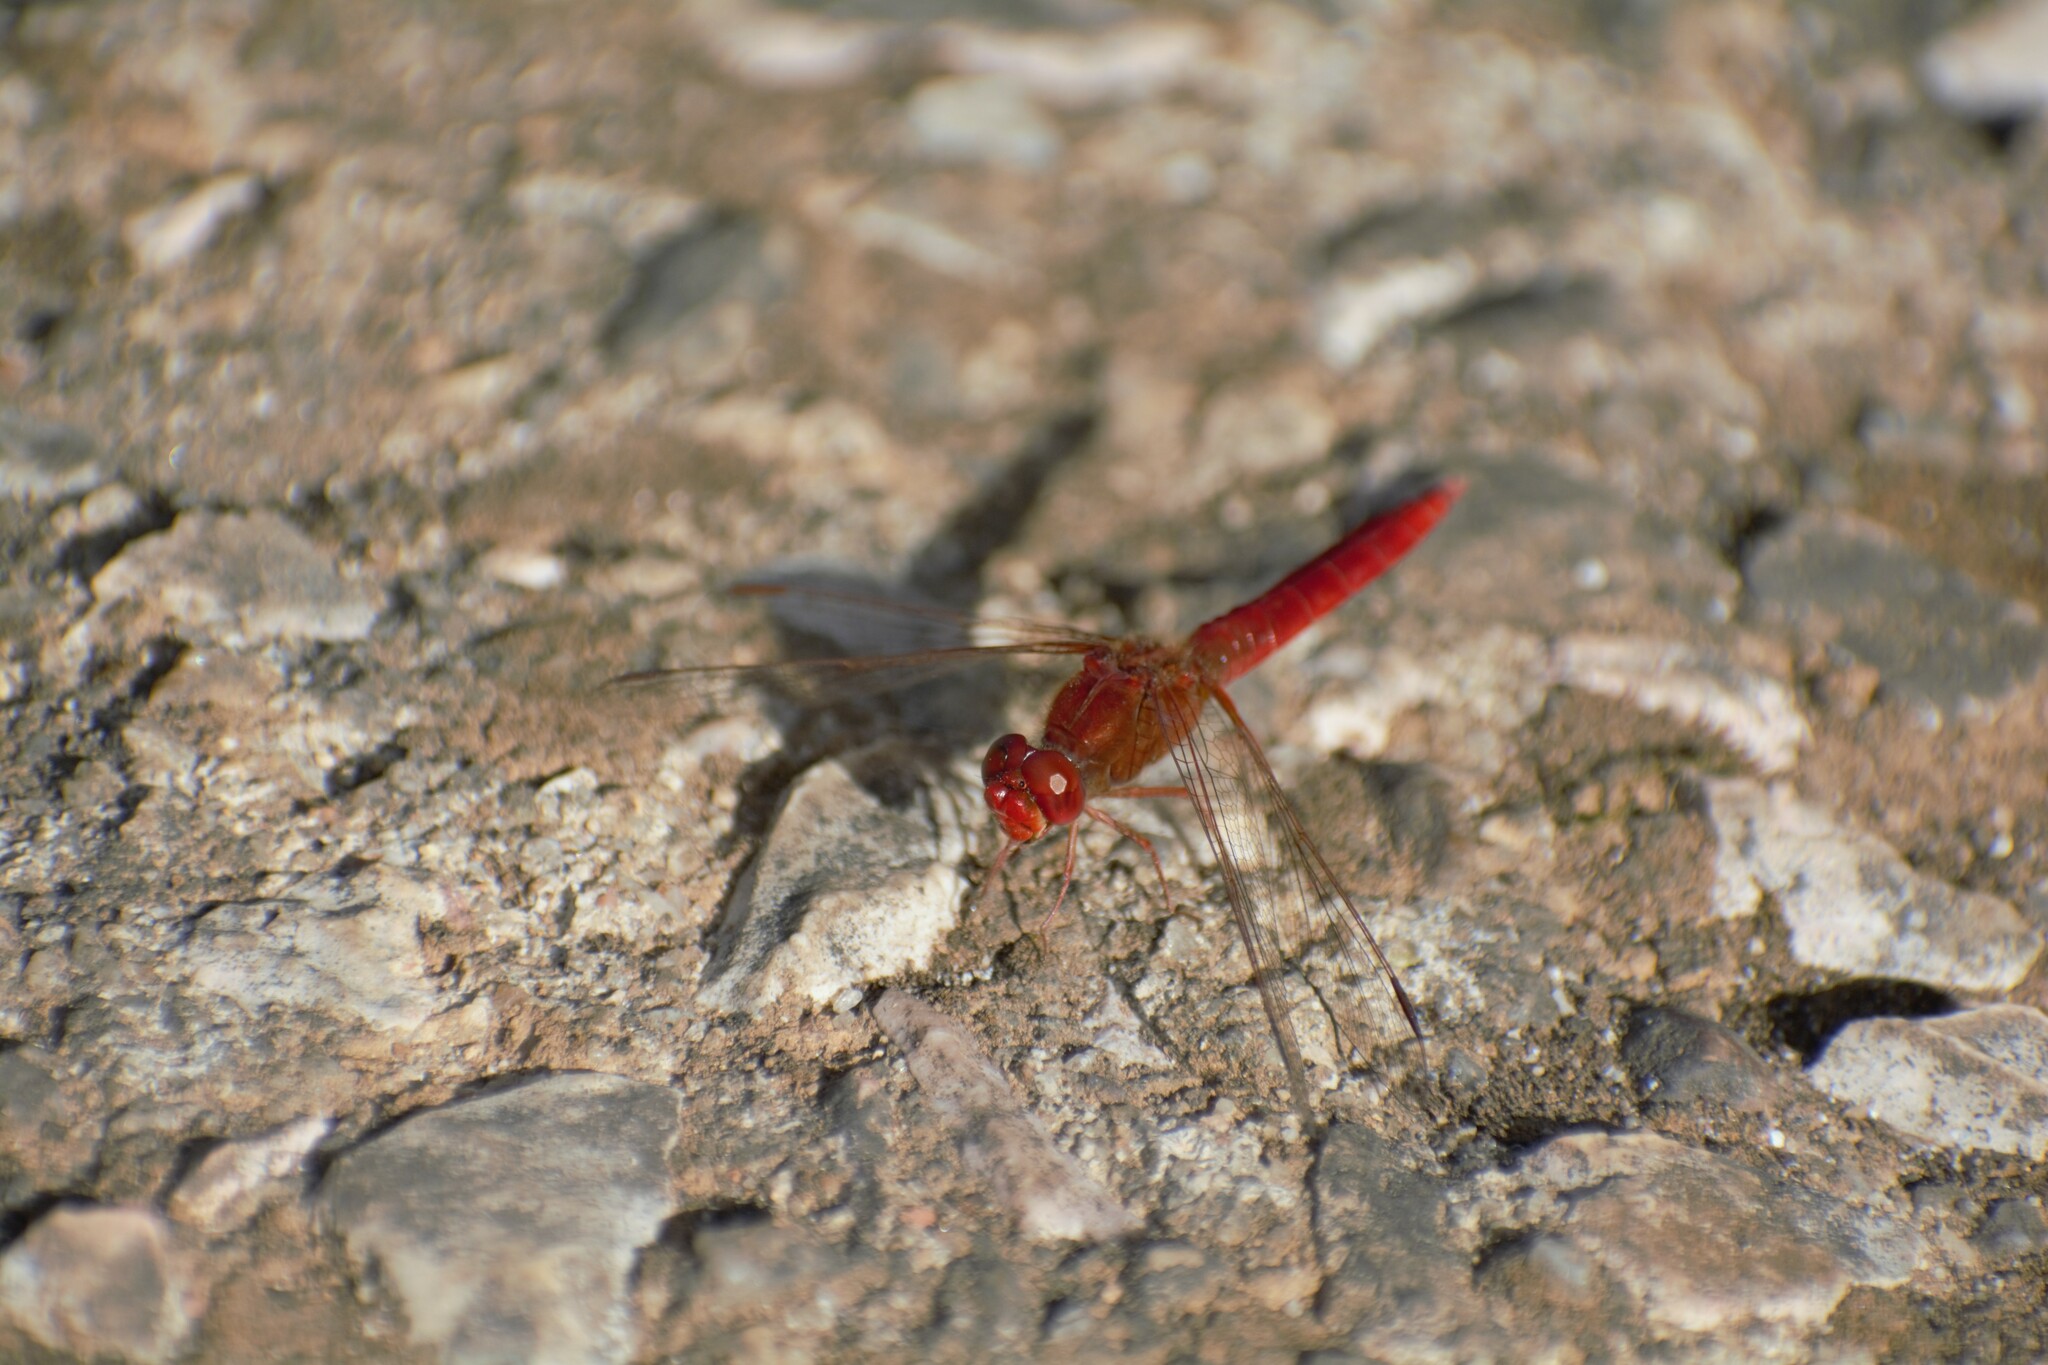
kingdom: Animalia
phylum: Arthropoda
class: Insecta
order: Odonata
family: Libellulidae
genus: Crocothemis
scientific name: Crocothemis erythraea
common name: Scarlet dragonfly
